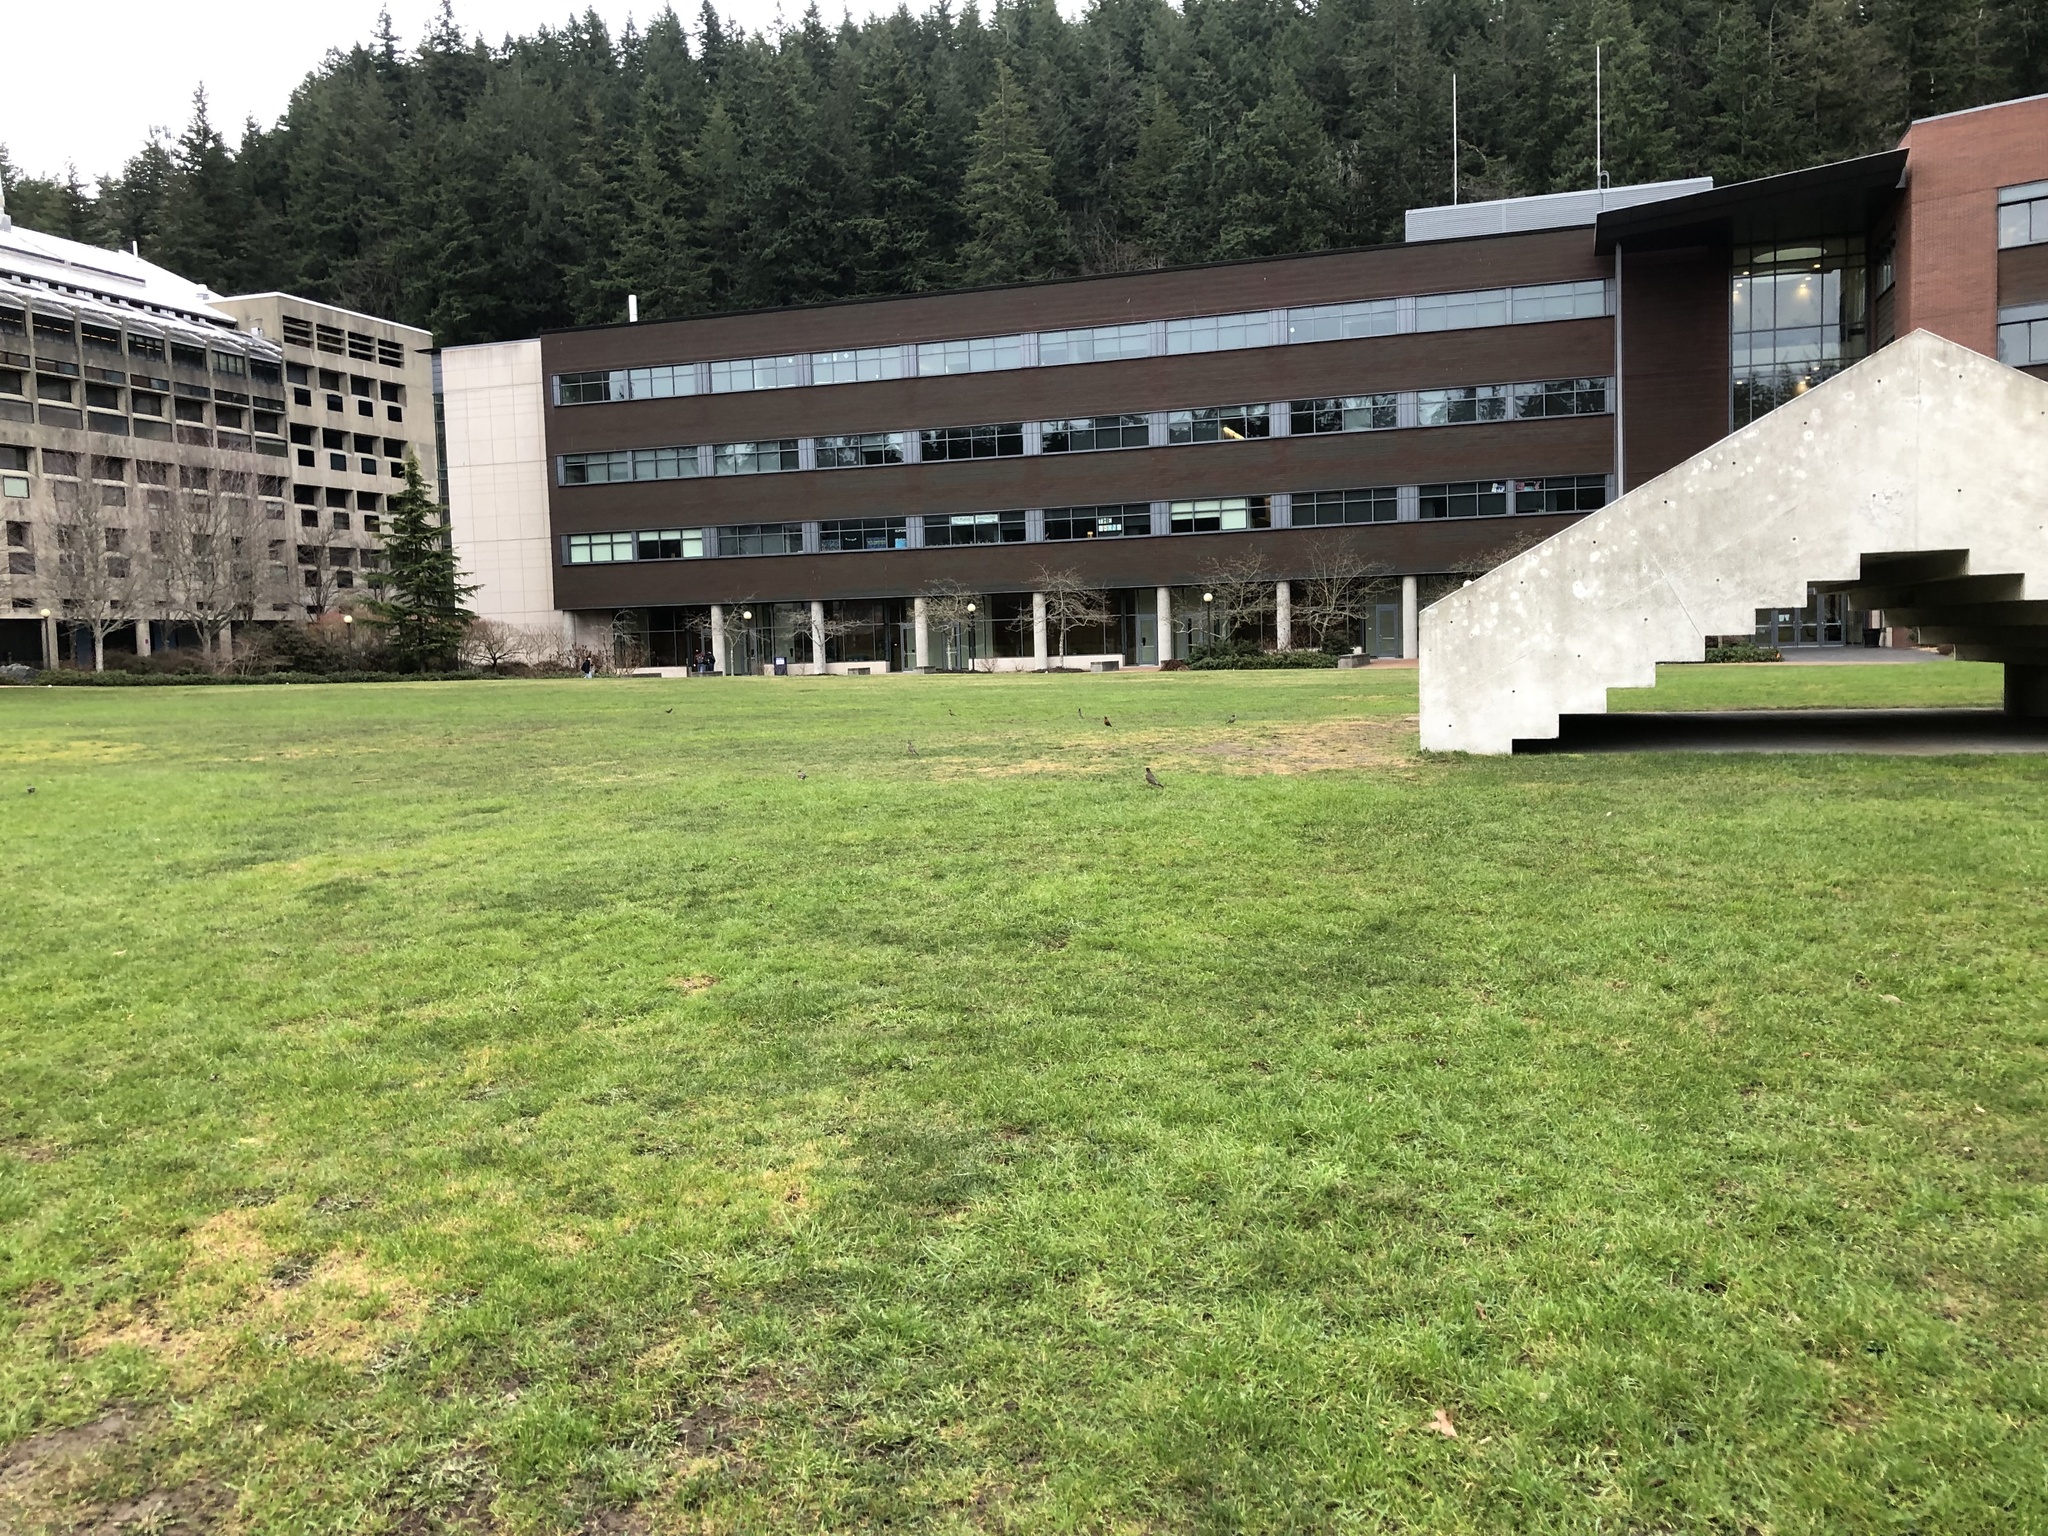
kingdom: Animalia
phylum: Chordata
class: Aves
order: Passeriformes
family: Turdidae
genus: Turdus
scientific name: Turdus migratorius
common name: American robin
